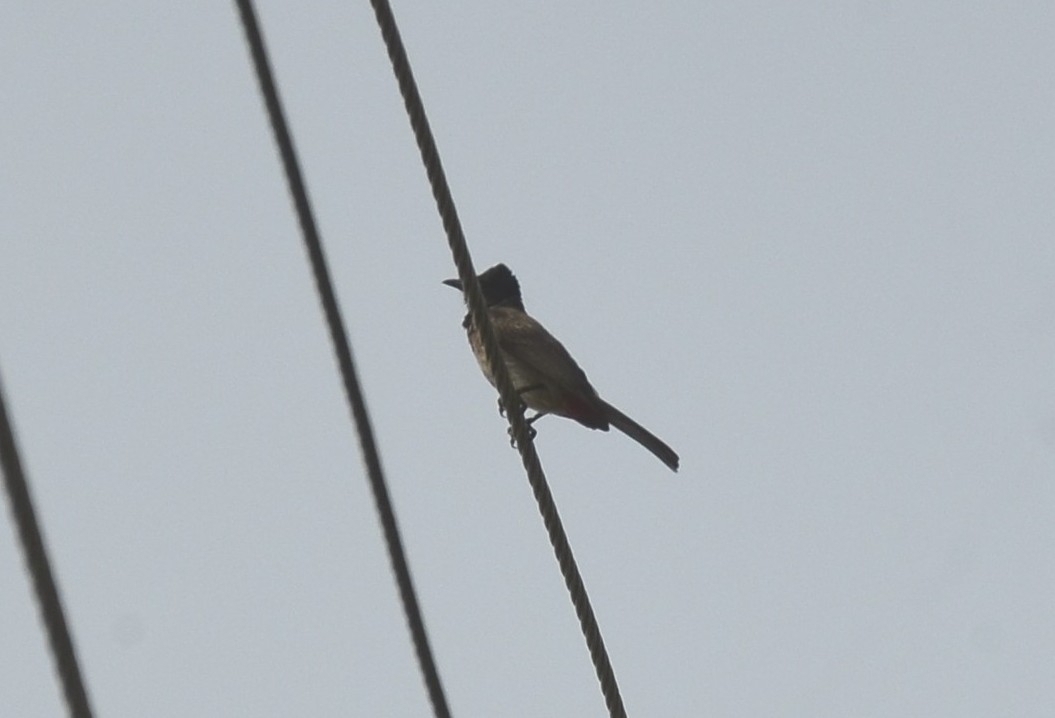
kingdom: Animalia
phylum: Chordata
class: Aves
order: Passeriformes
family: Pycnonotidae
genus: Pycnonotus
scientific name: Pycnonotus cafer
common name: Red-vented bulbul
